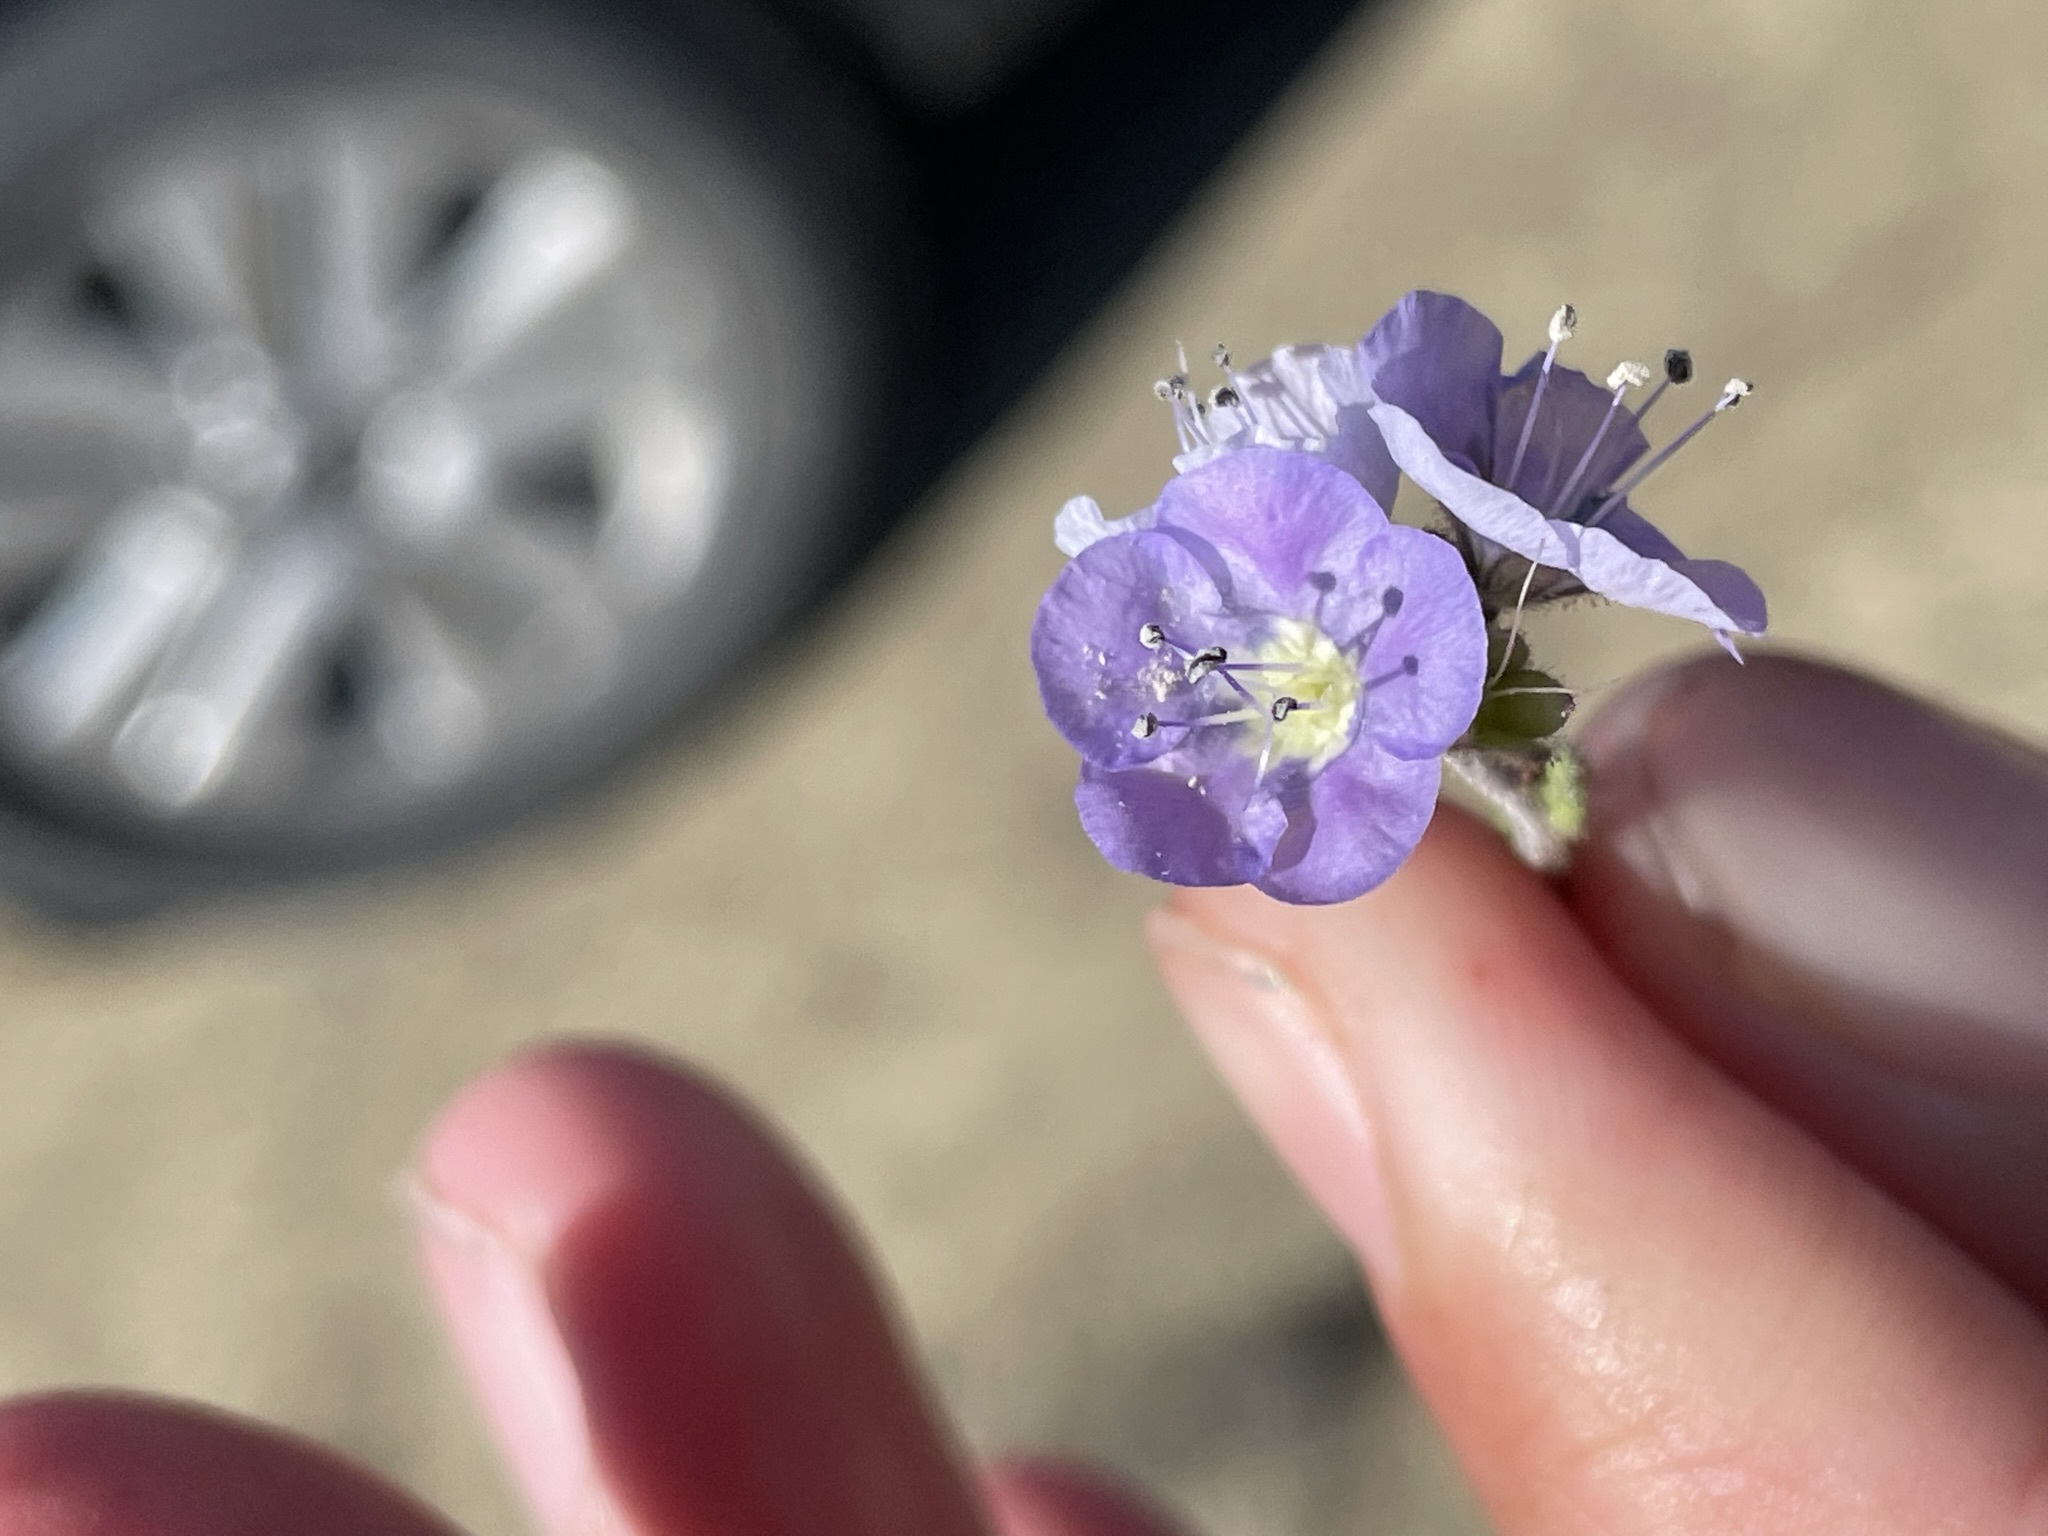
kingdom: Plantae
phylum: Tracheophyta
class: Magnoliopsida
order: Boraginales
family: Hydrophyllaceae
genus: Phacelia
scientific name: Phacelia ciliata
